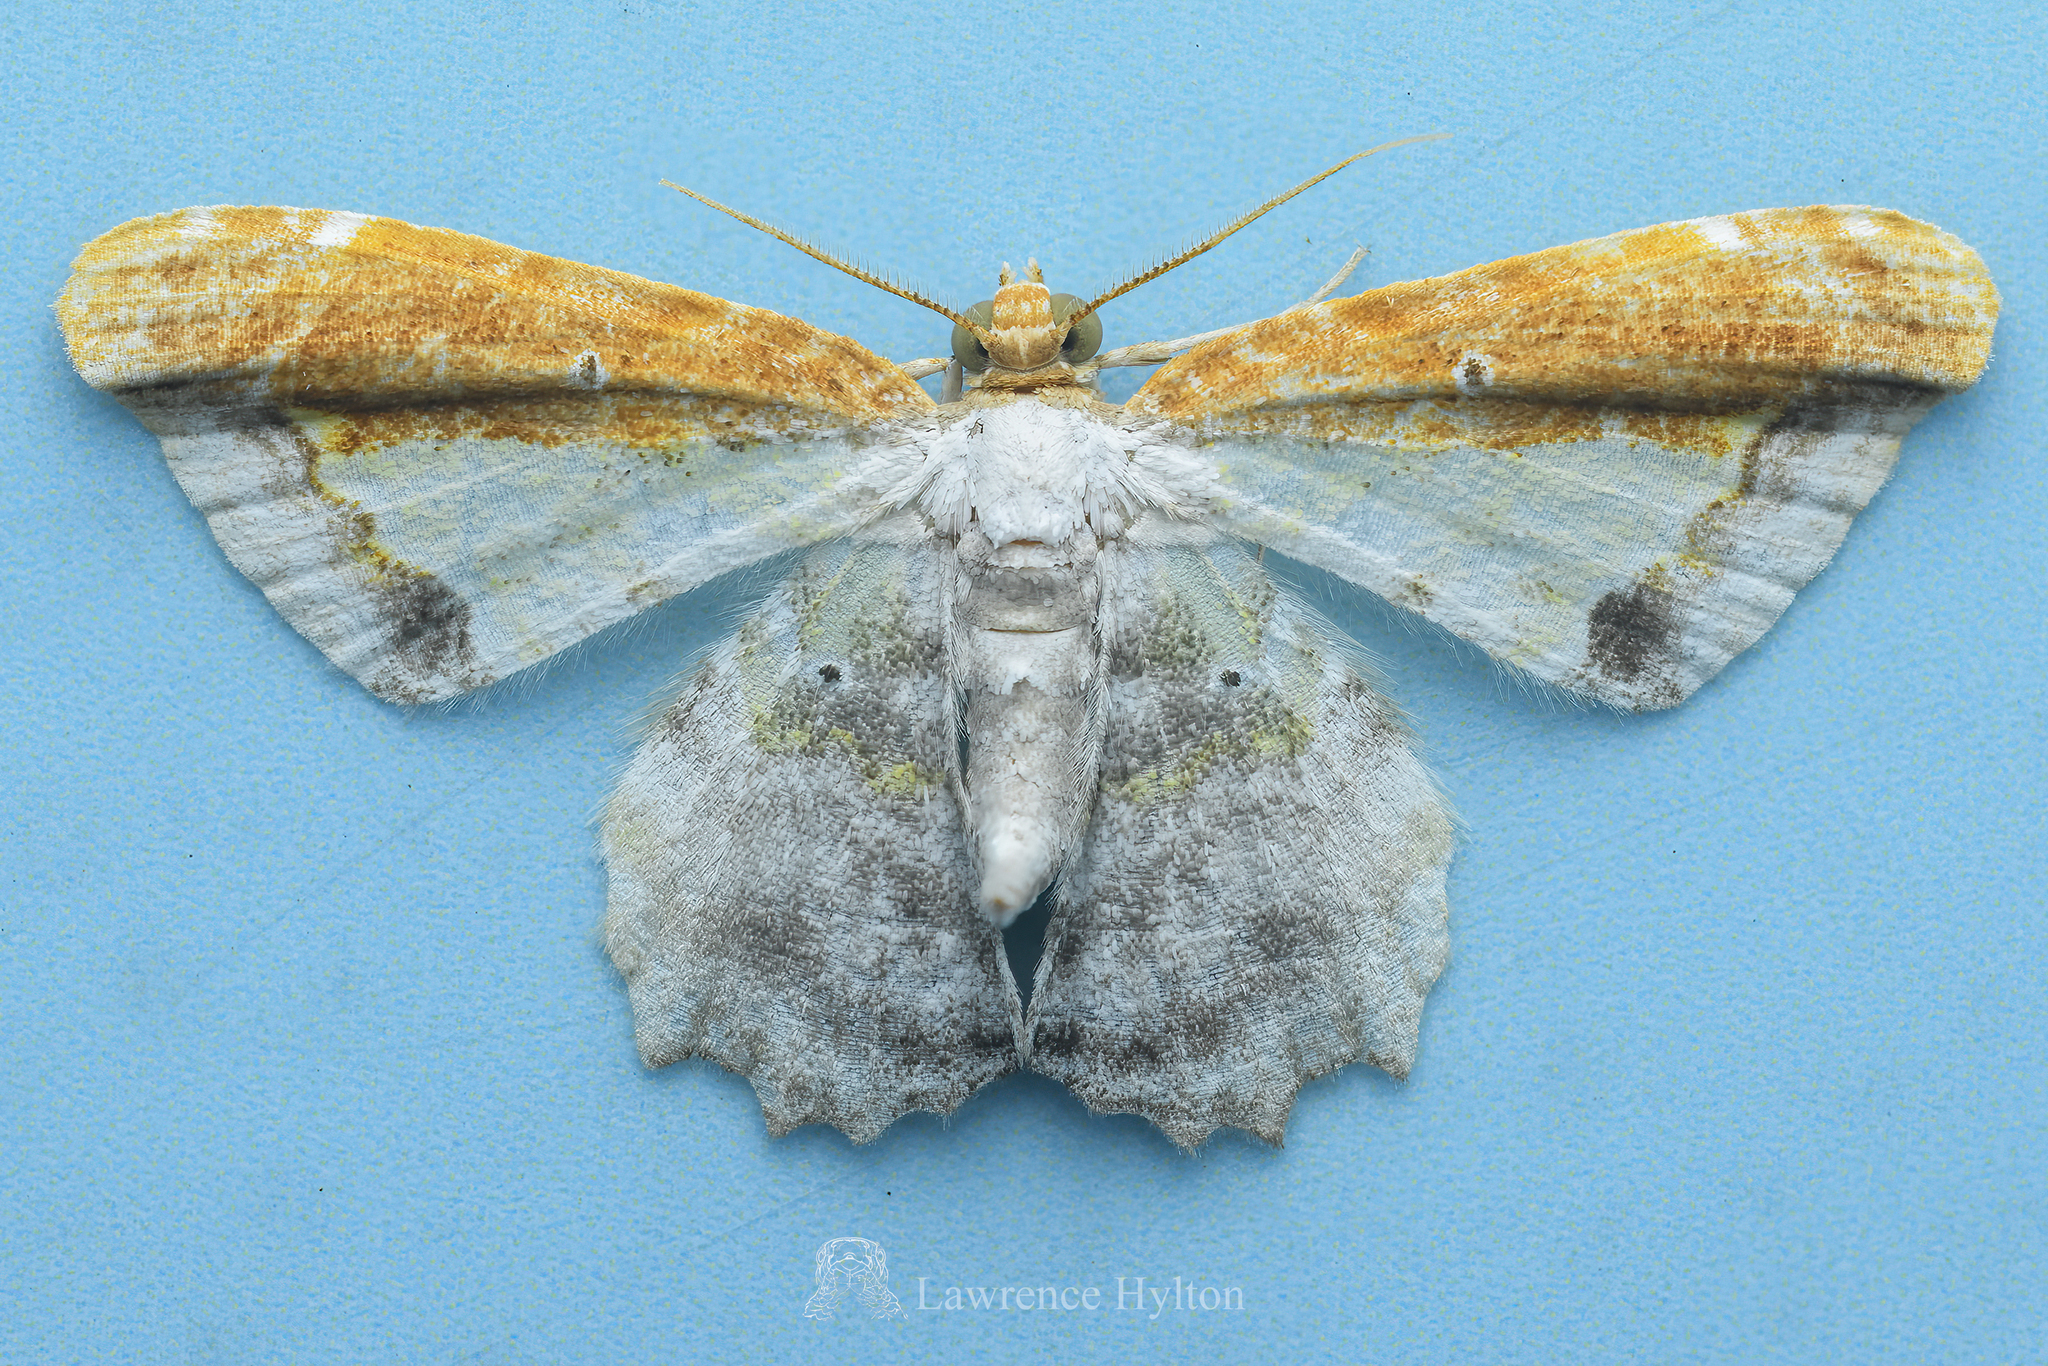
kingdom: Animalia
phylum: Arthropoda
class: Insecta
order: Lepidoptera
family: Geometridae
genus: Acolutha
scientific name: Acolutha pulchella
